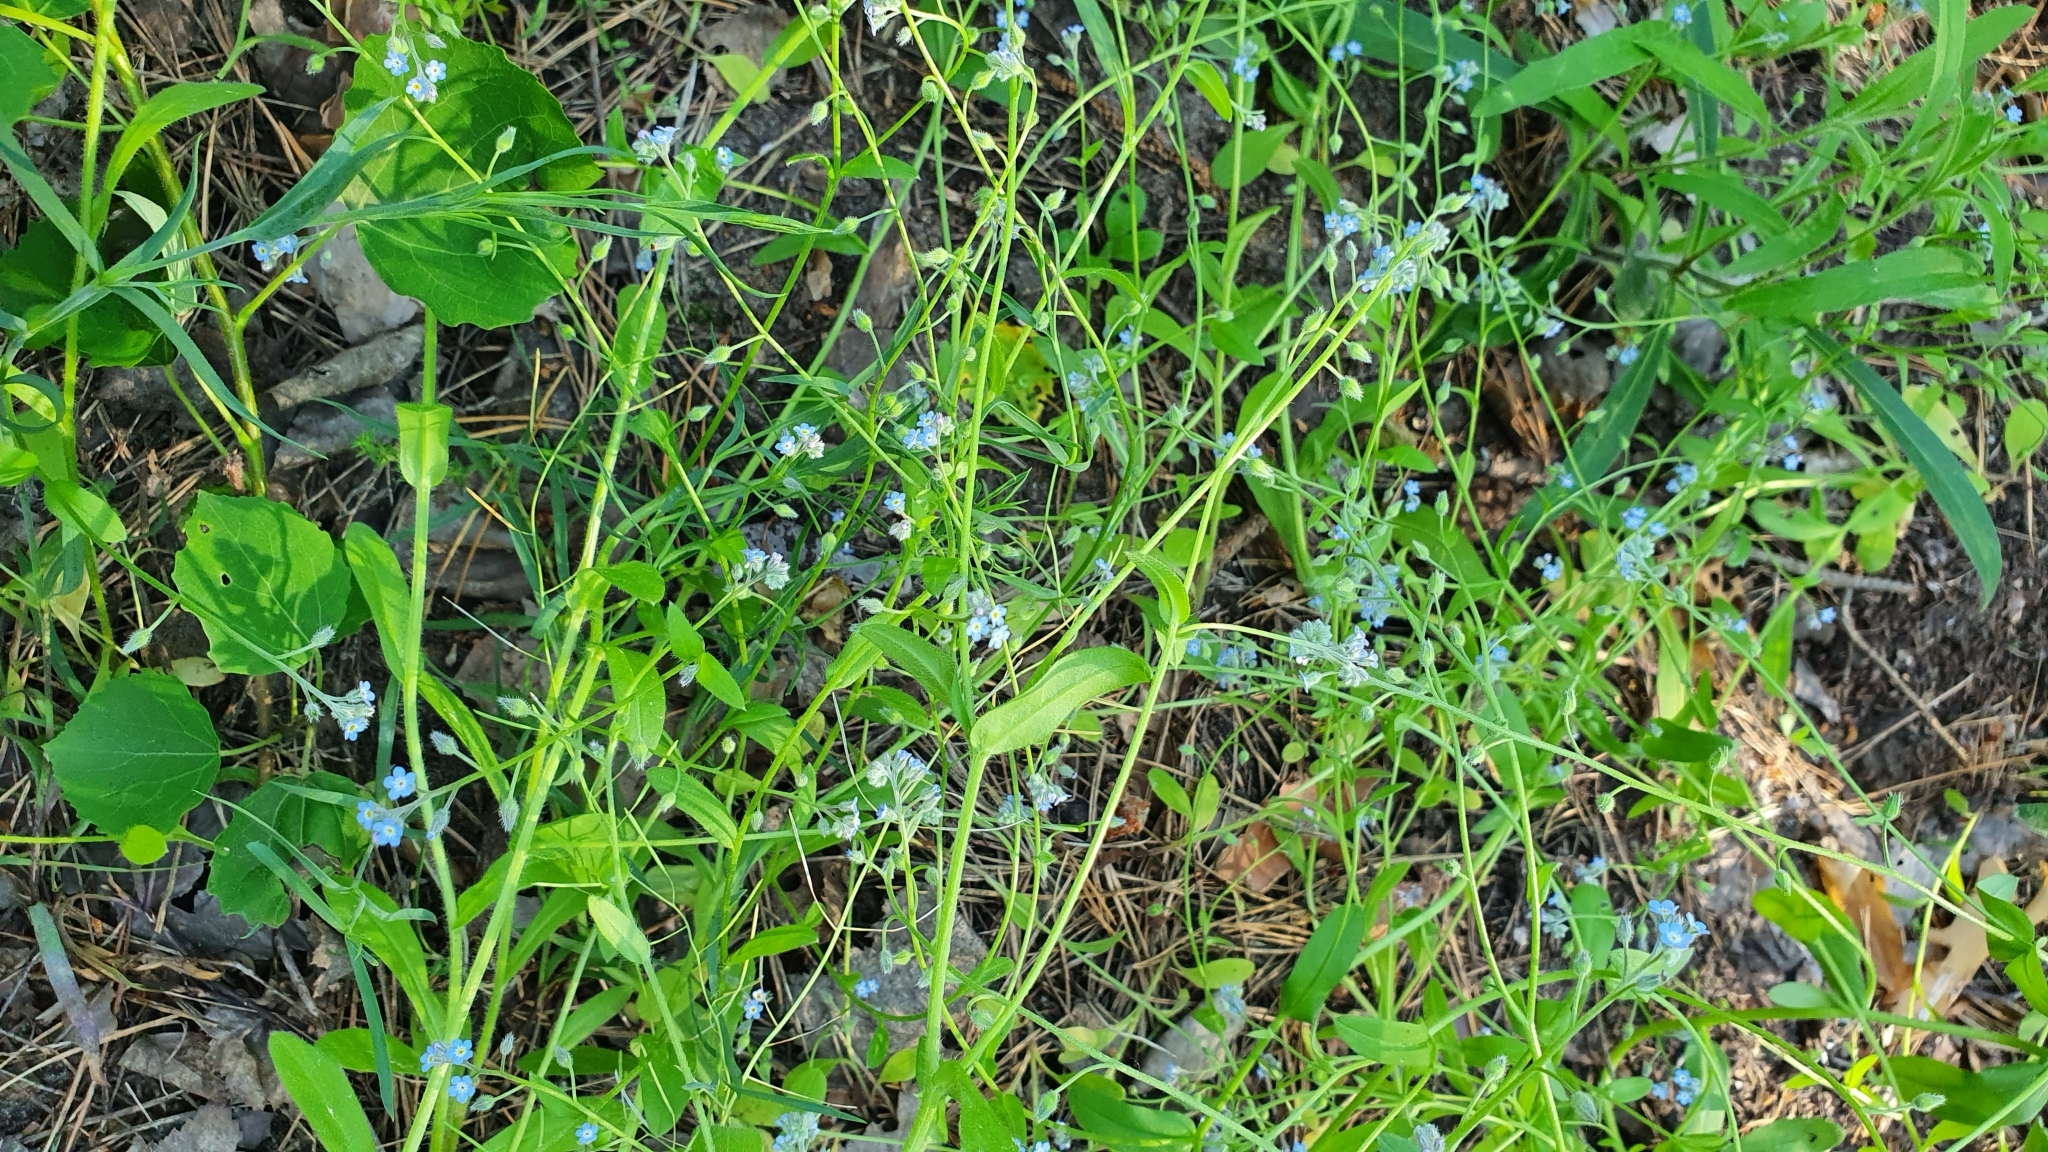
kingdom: Plantae
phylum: Tracheophyta
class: Magnoliopsida
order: Boraginales
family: Boraginaceae
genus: Myosotis
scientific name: Myosotis laxa
